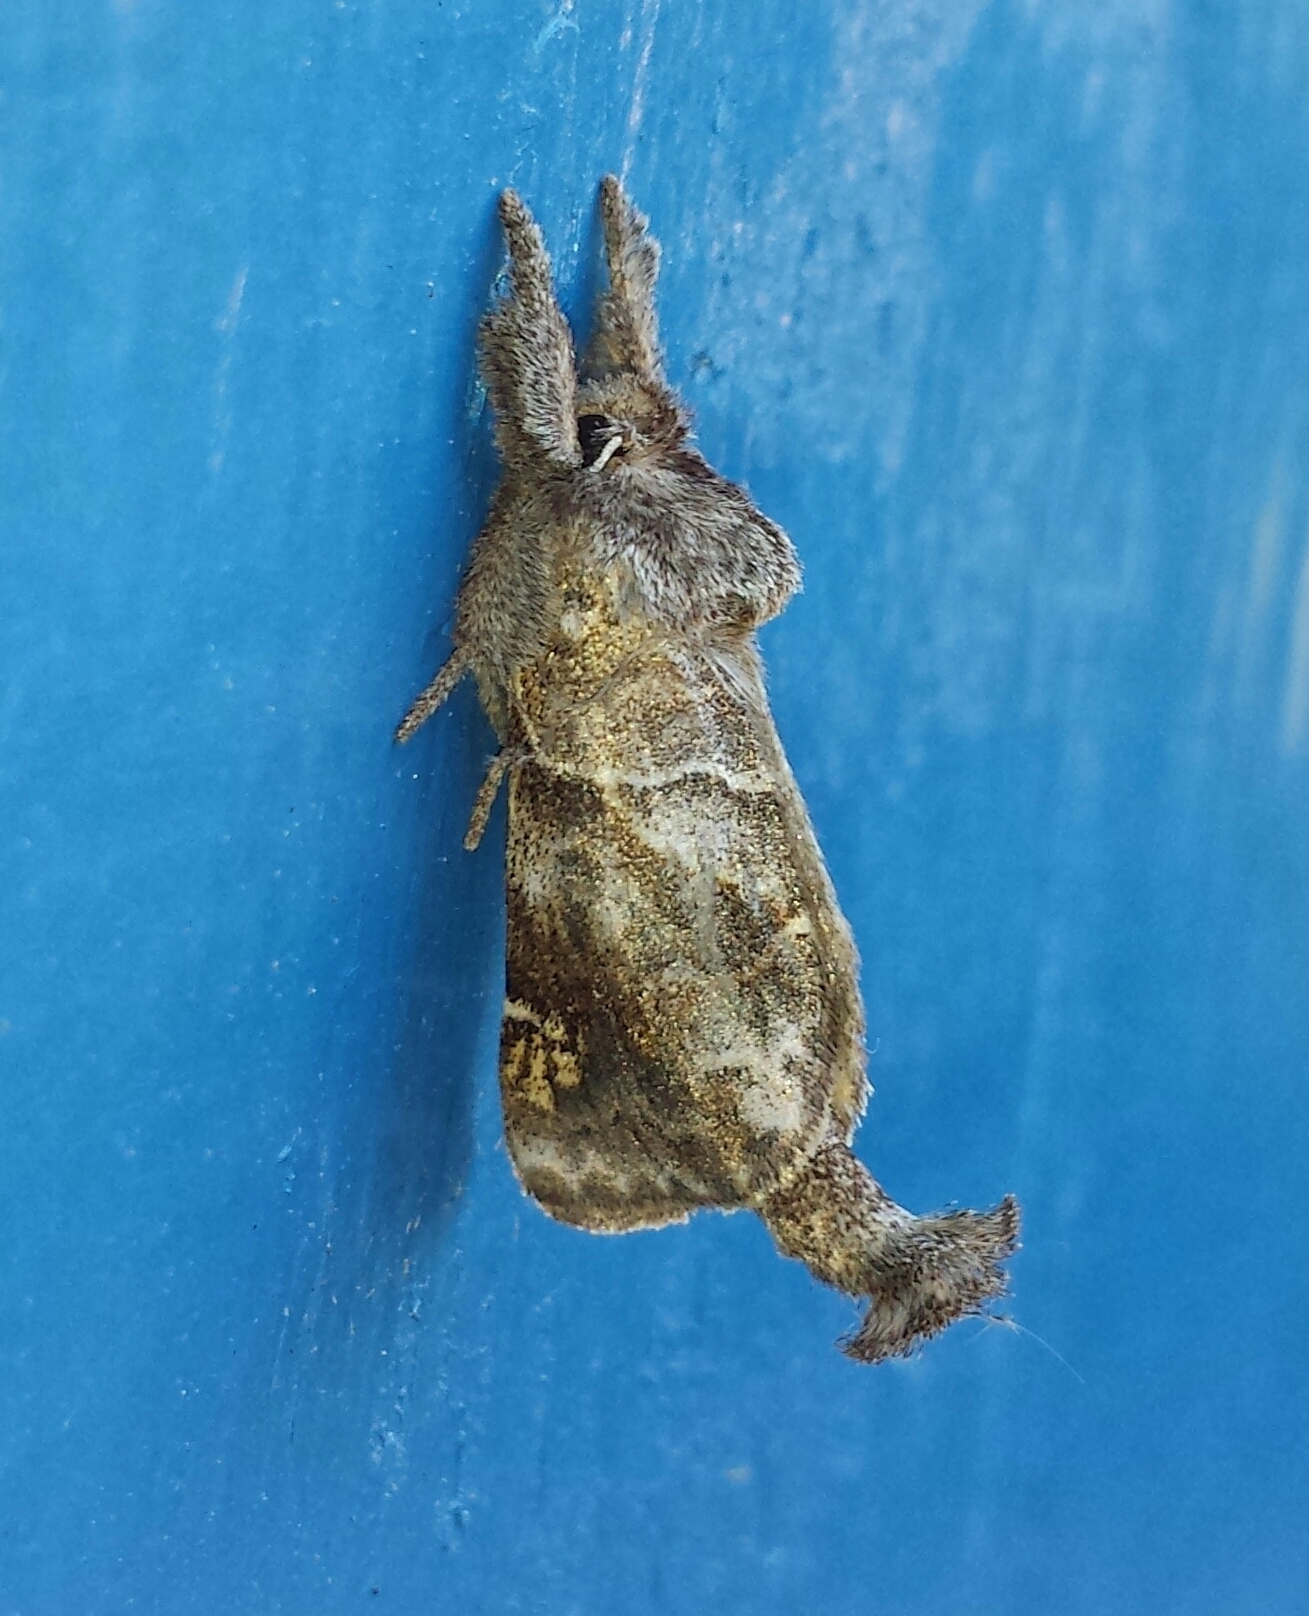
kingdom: Animalia
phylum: Arthropoda
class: Insecta
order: Lepidoptera
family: Notodontidae
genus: Clostera
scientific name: Clostera strigosa
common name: Striped chocolate-tip moth
